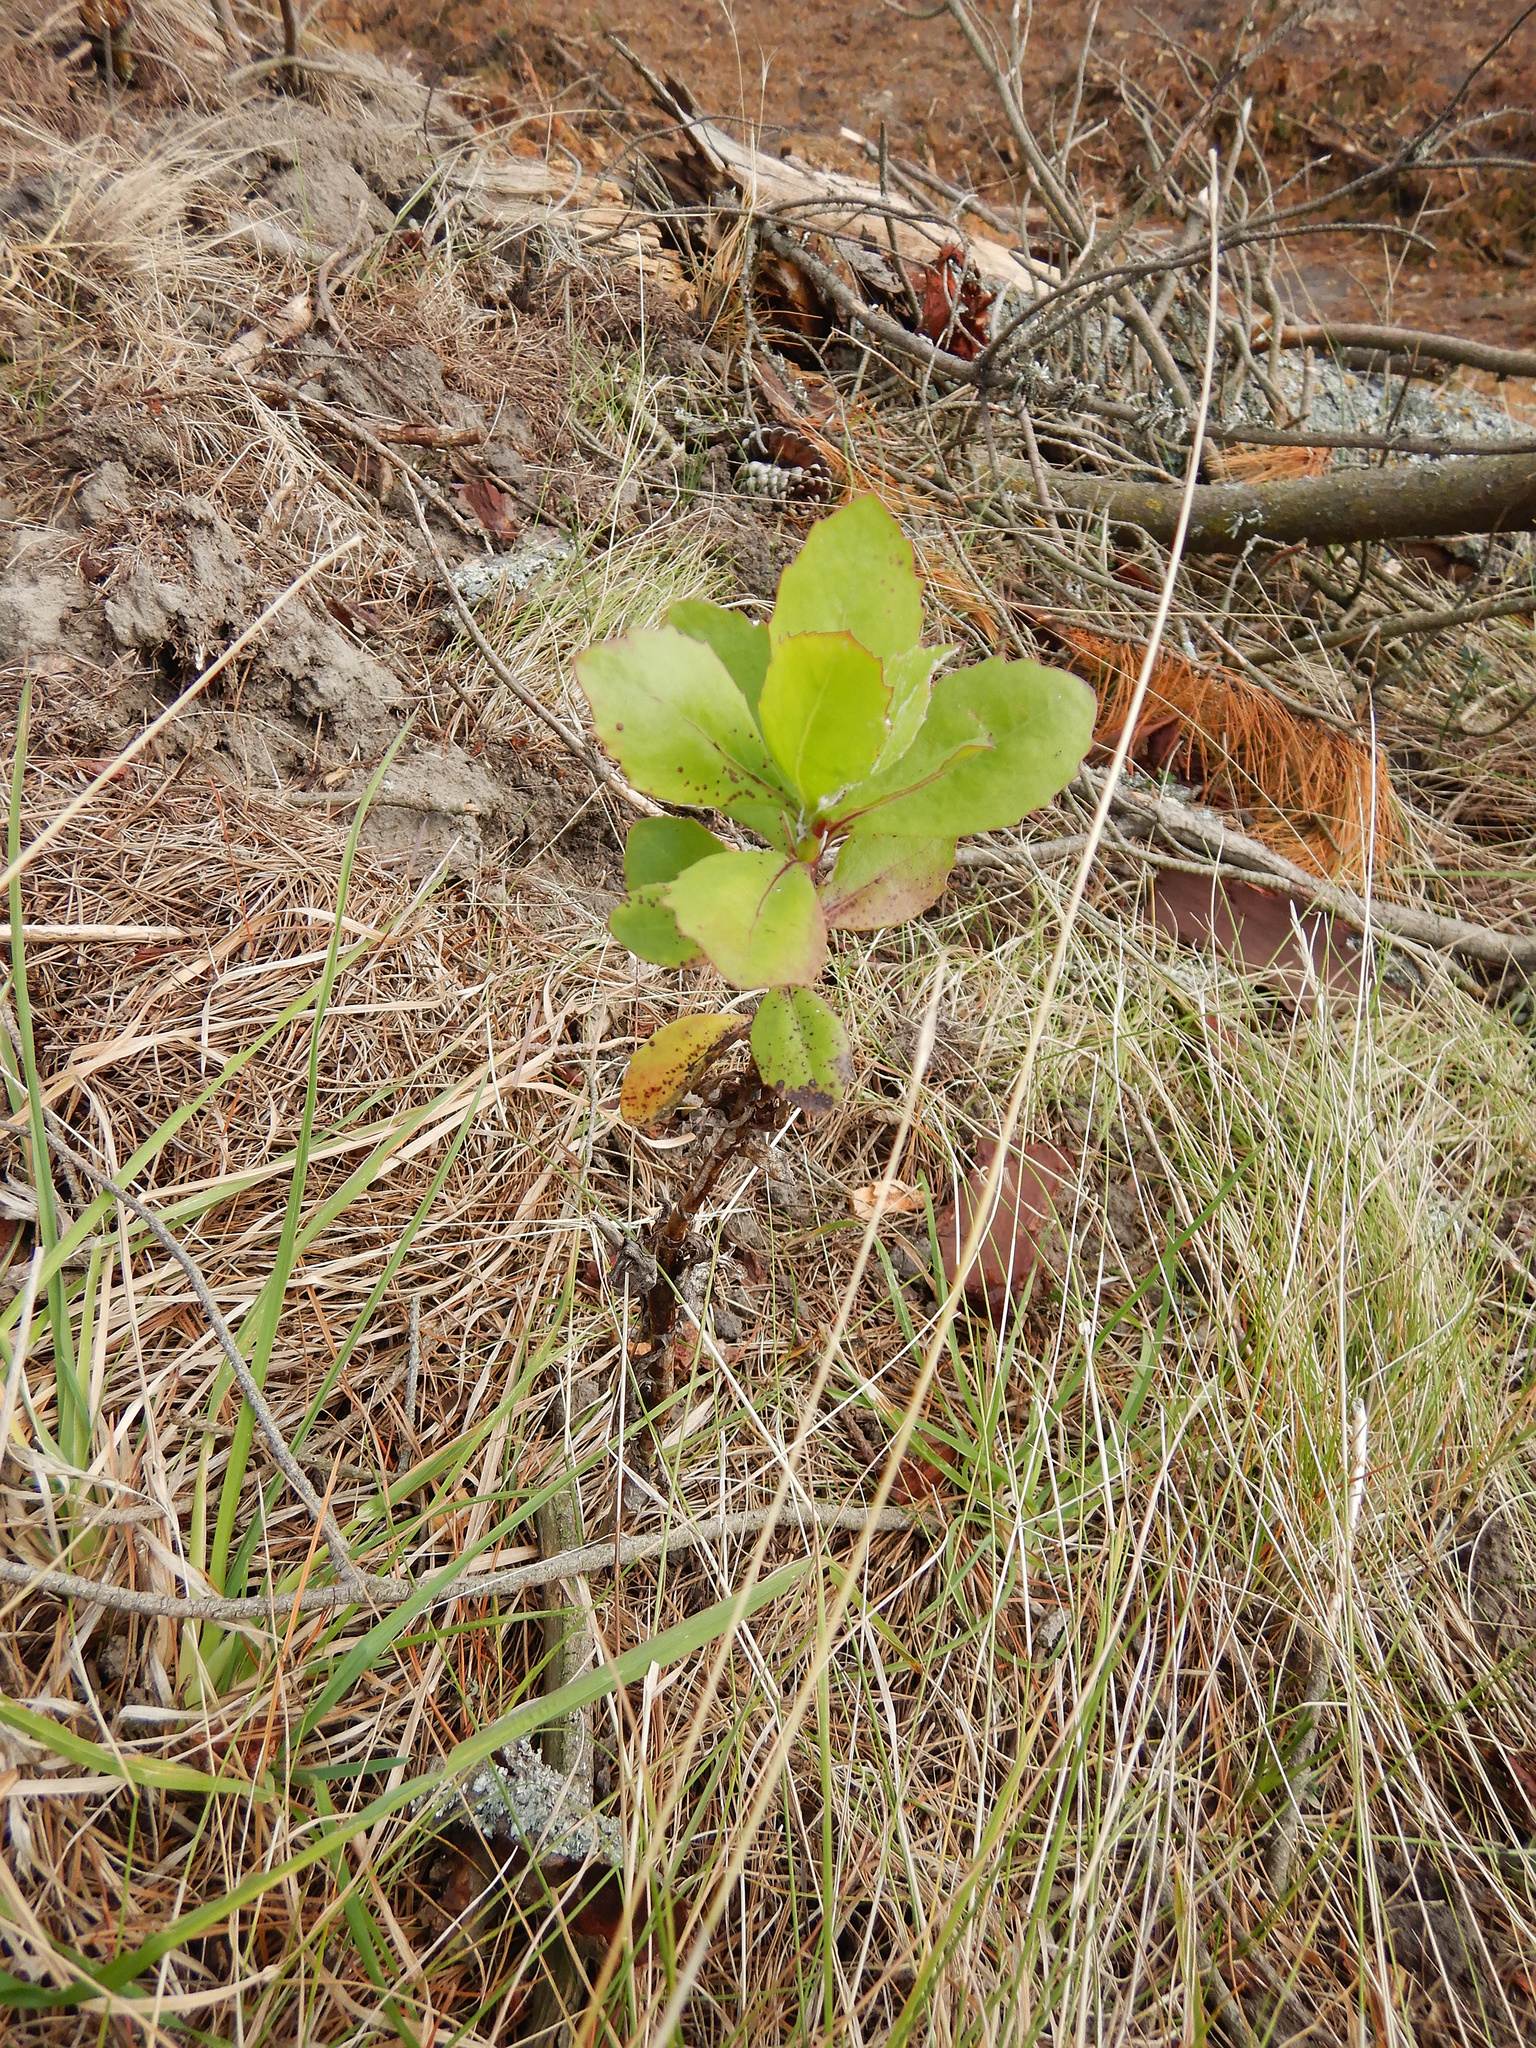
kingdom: Plantae
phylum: Tracheophyta
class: Magnoliopsida
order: Asterales
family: Asteraceae
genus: Osteospermum
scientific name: Osteospermum moniliferum
